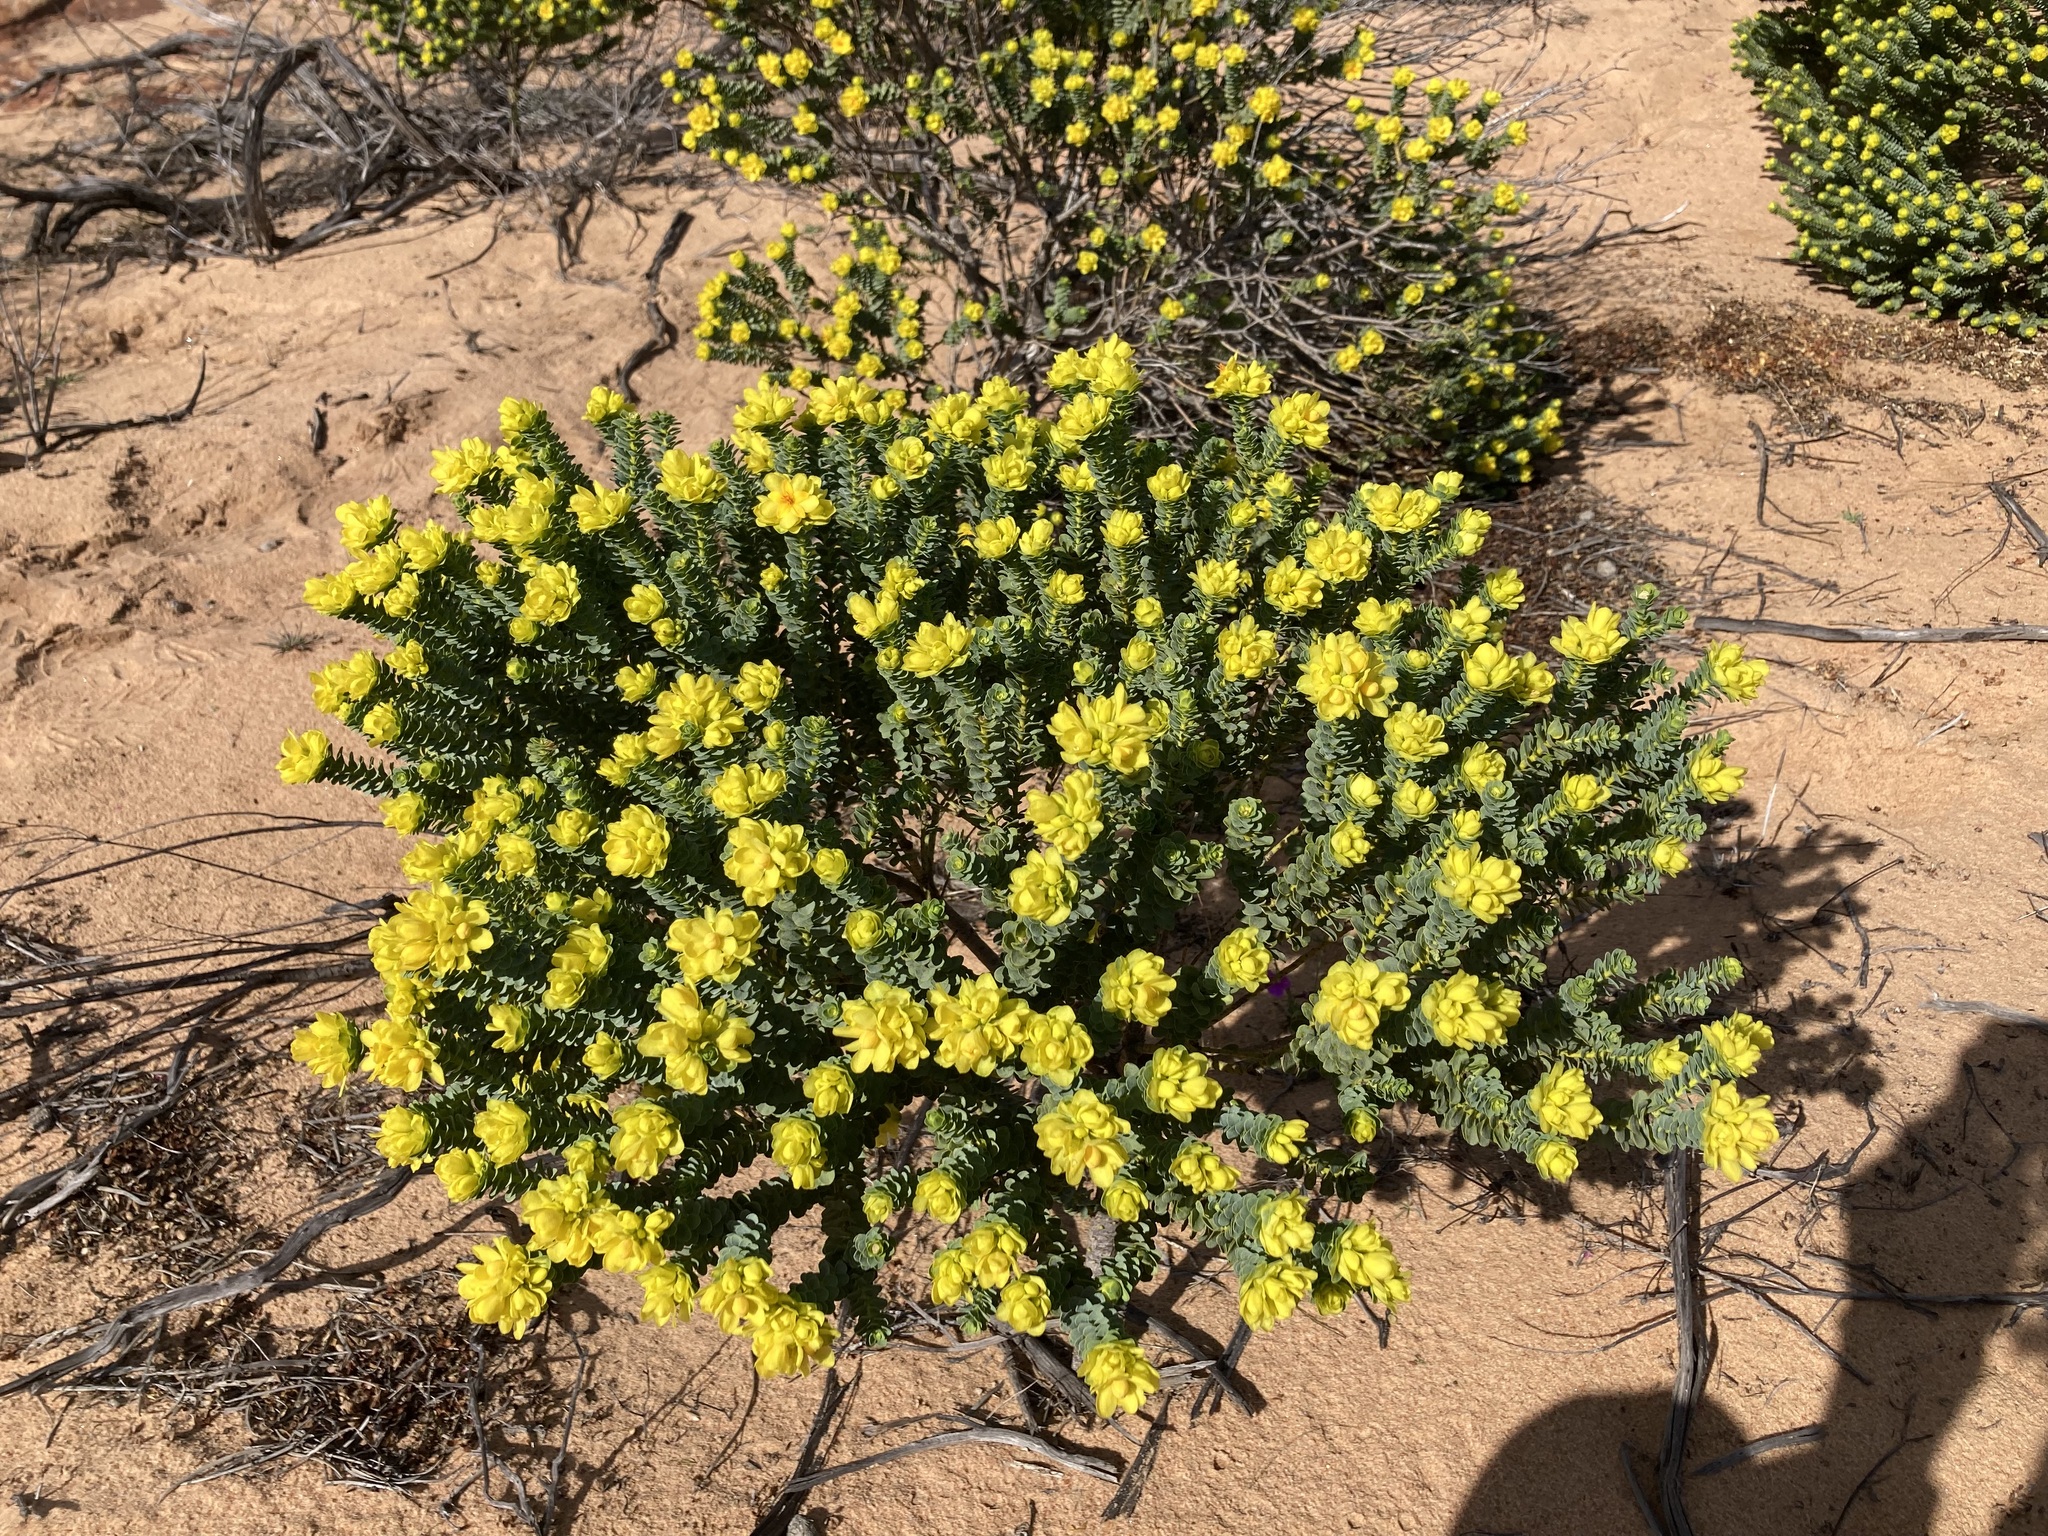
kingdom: Plantae
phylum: Tracheophyta
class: Magnoliopsida
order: Sapindales
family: Rutaceae
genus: Geleznowia
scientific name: Geleznowia amabilis
